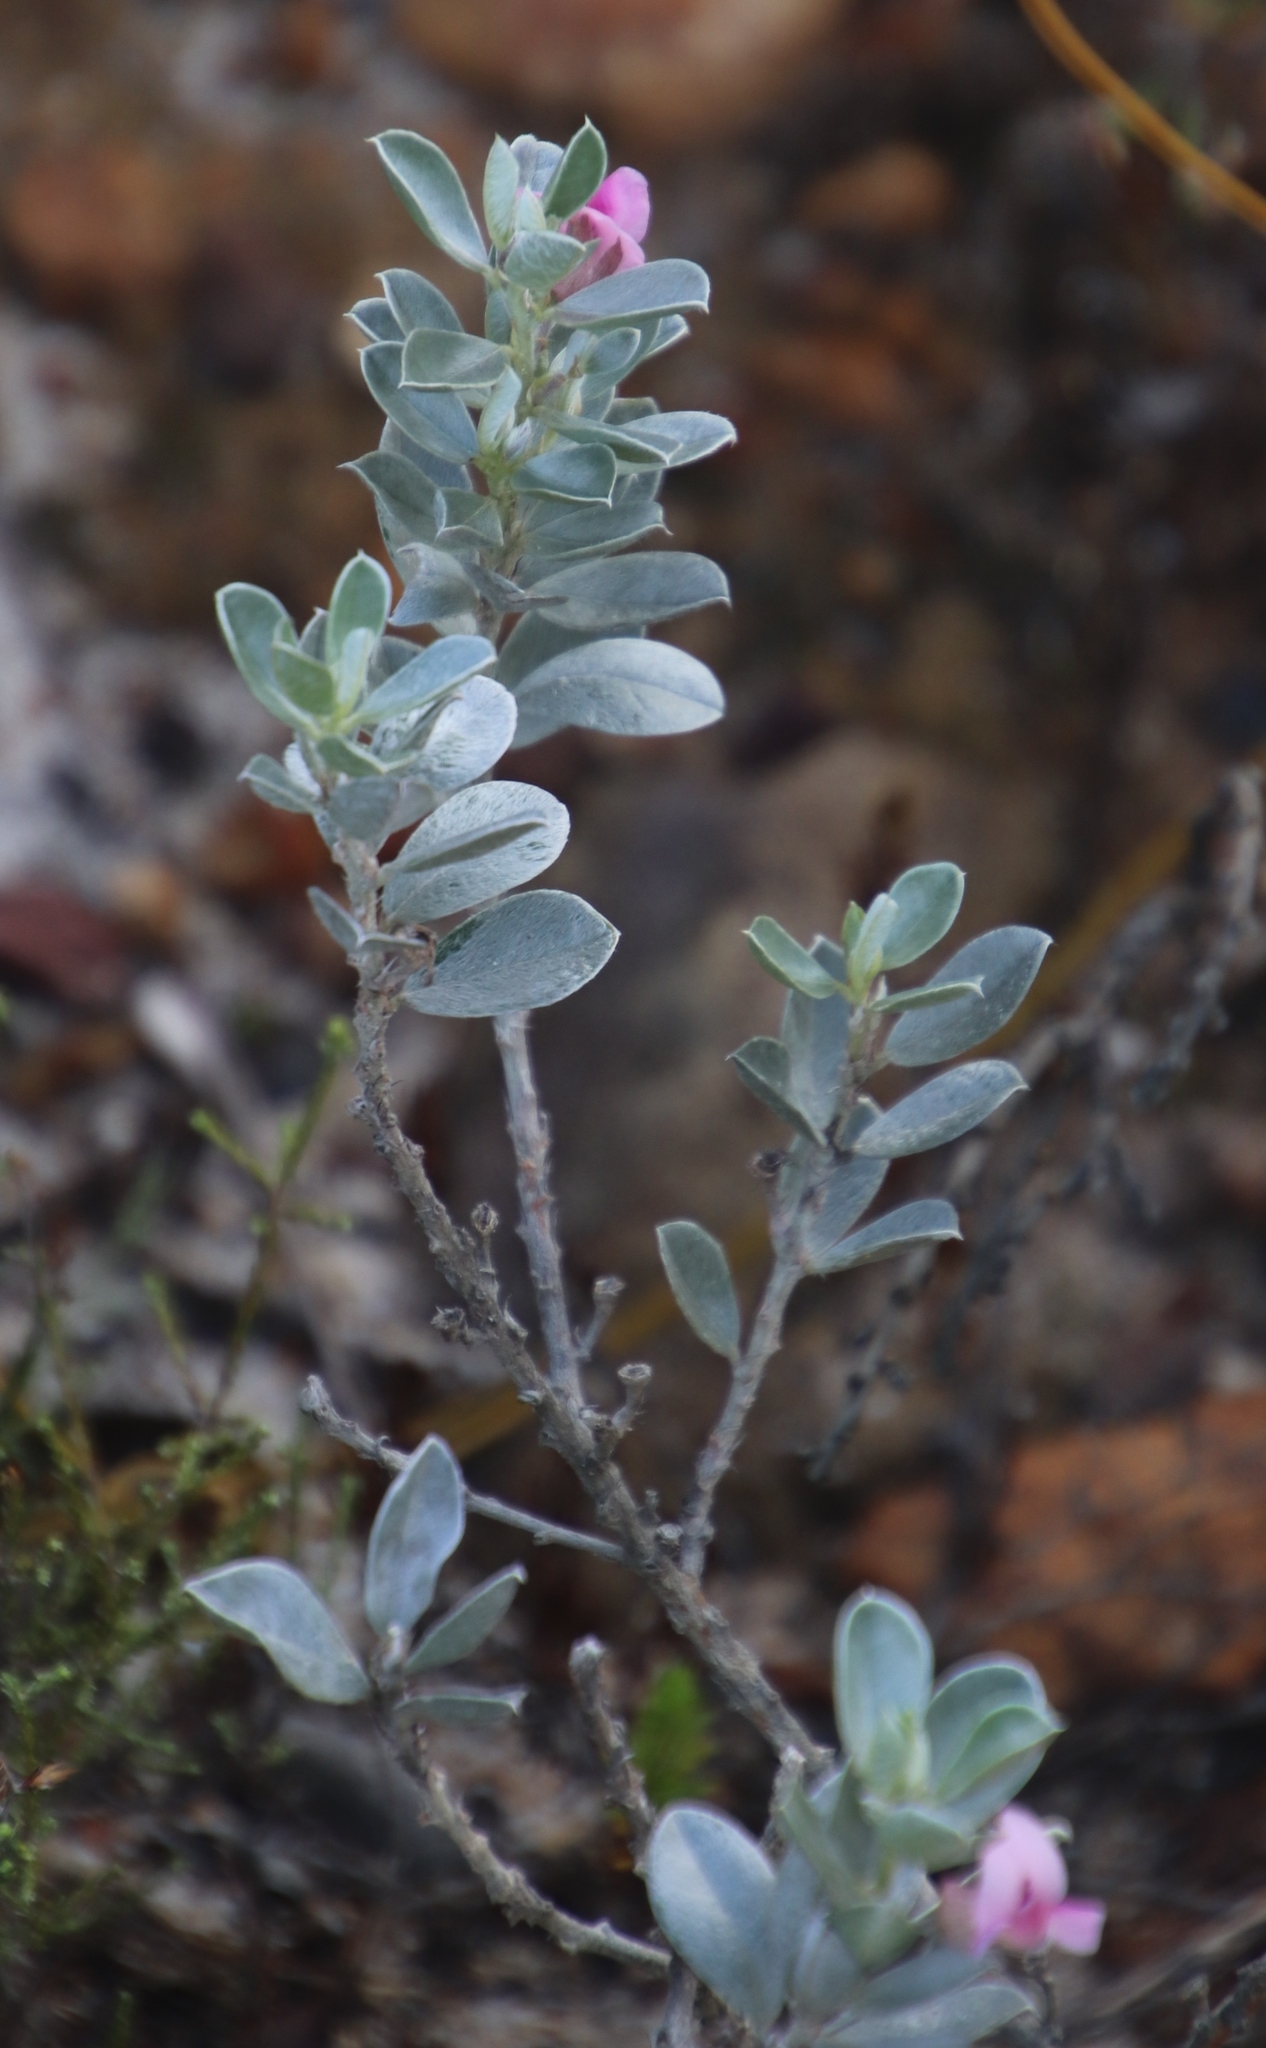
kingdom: Plantae
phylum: Tracheophyta
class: Magnoliopsida
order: Fabales
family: Fabaceae
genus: Podalyria
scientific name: Podalyria sericea
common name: Silver podalyria
